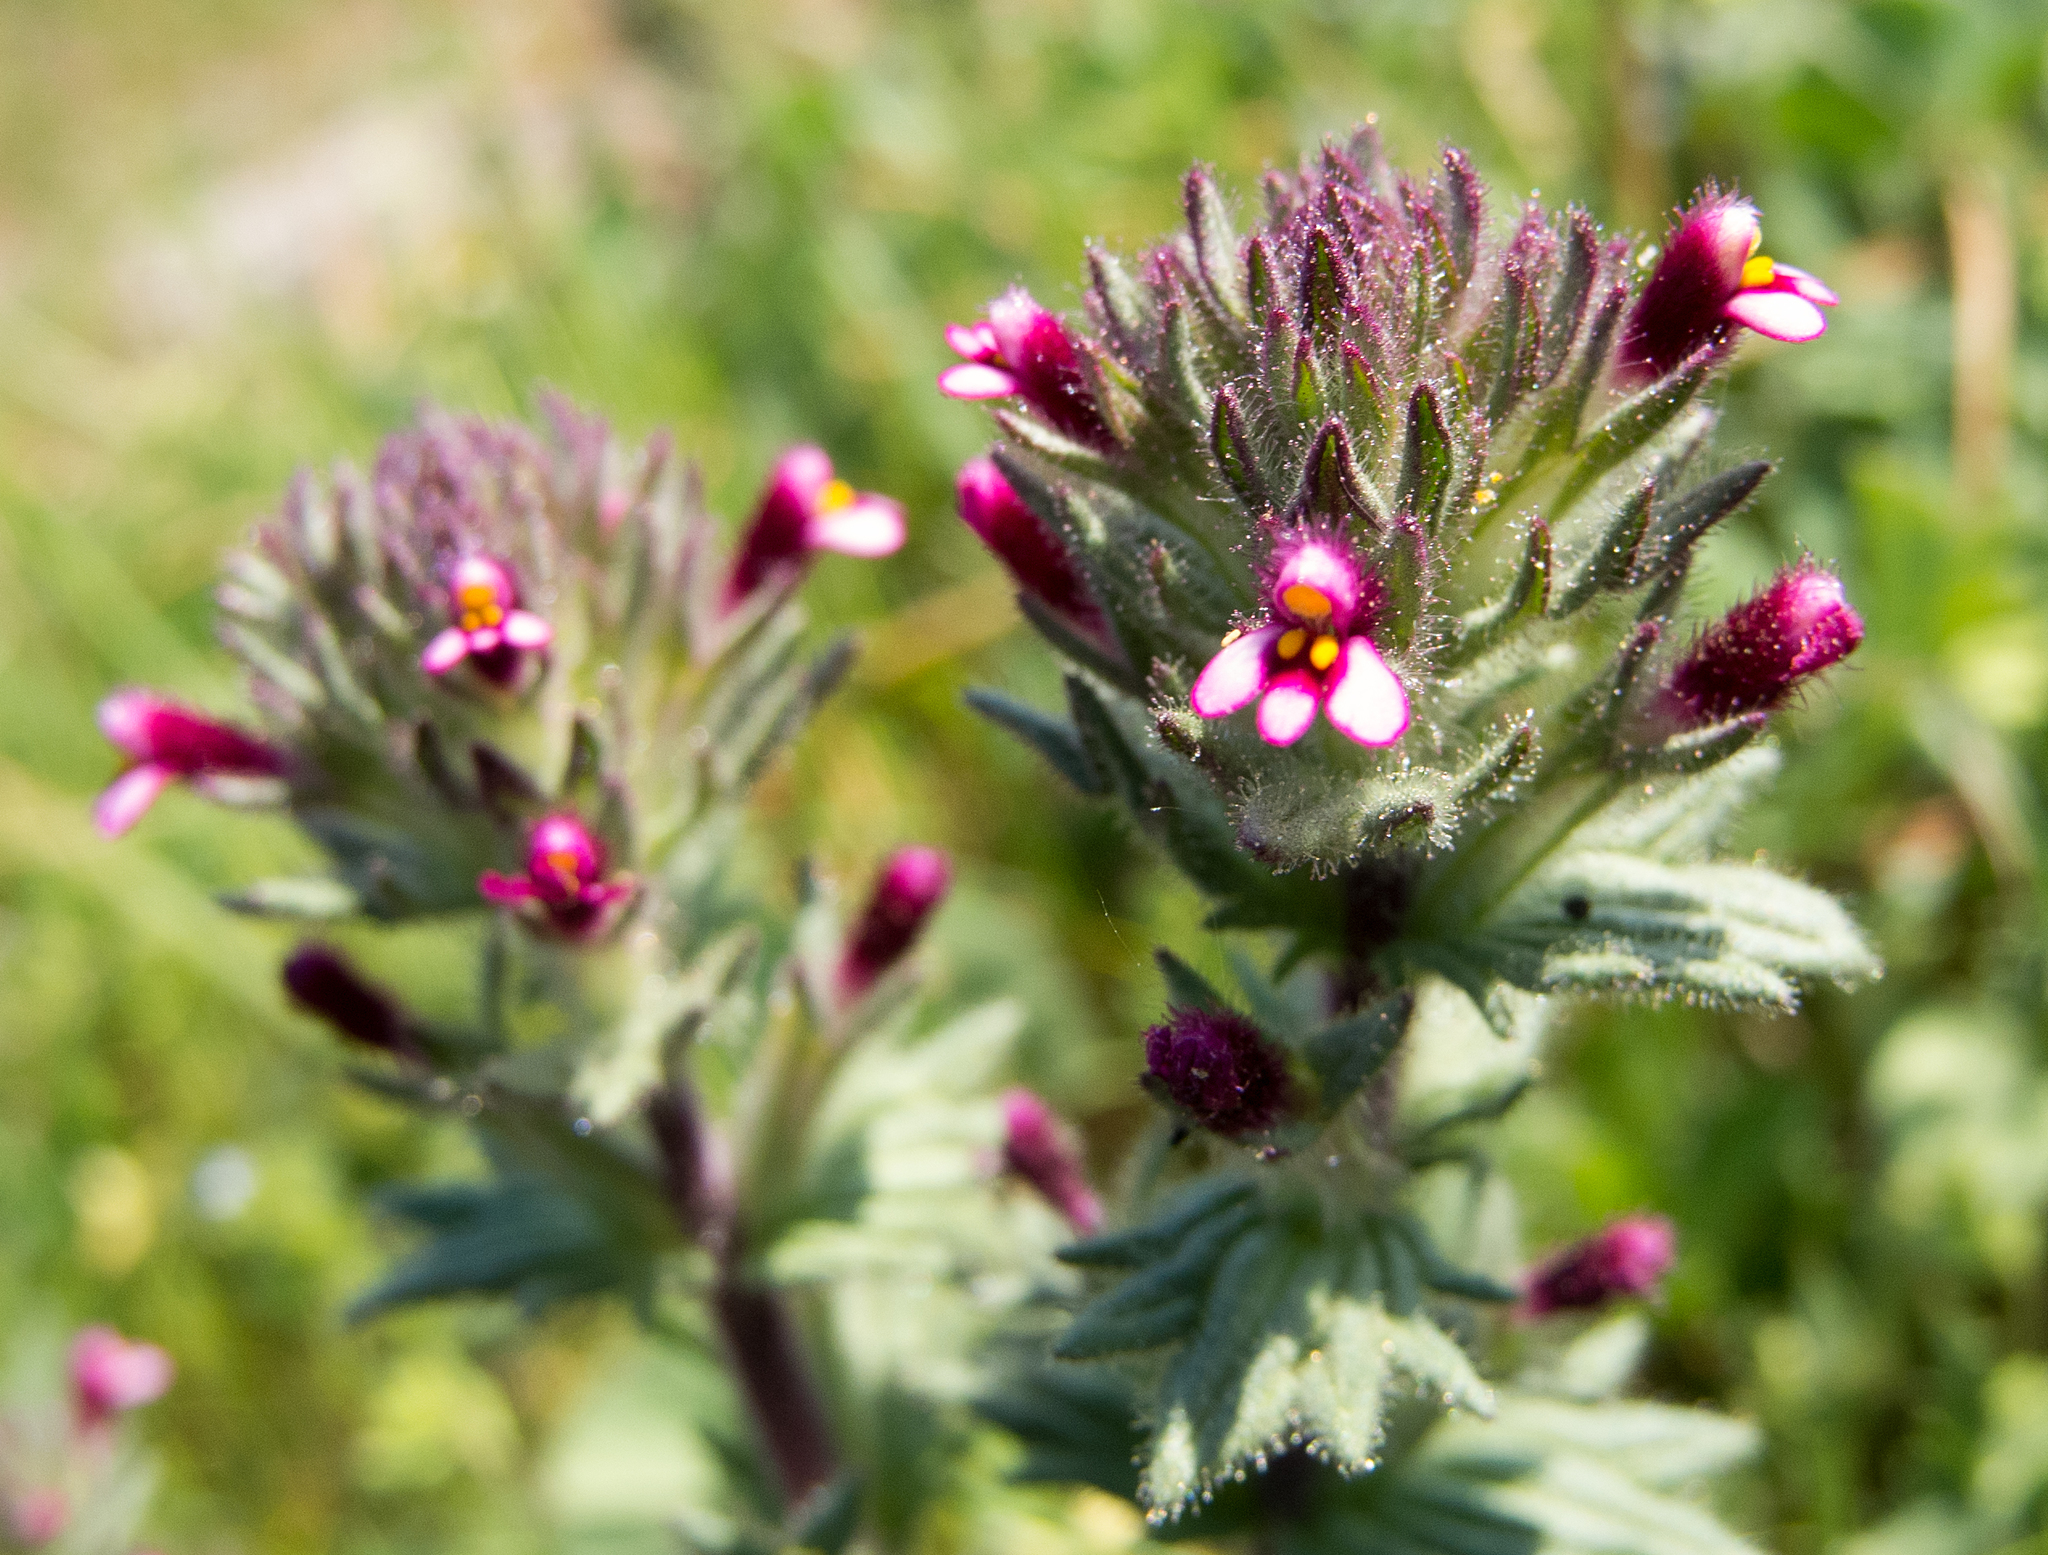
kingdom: Plantae
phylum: Tracheophyta
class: Magnoliopsida
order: Lamiales
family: Orobanchaceae
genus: Parentucellia
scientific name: Parentucellia latifolia
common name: Broadleaf glandweed
